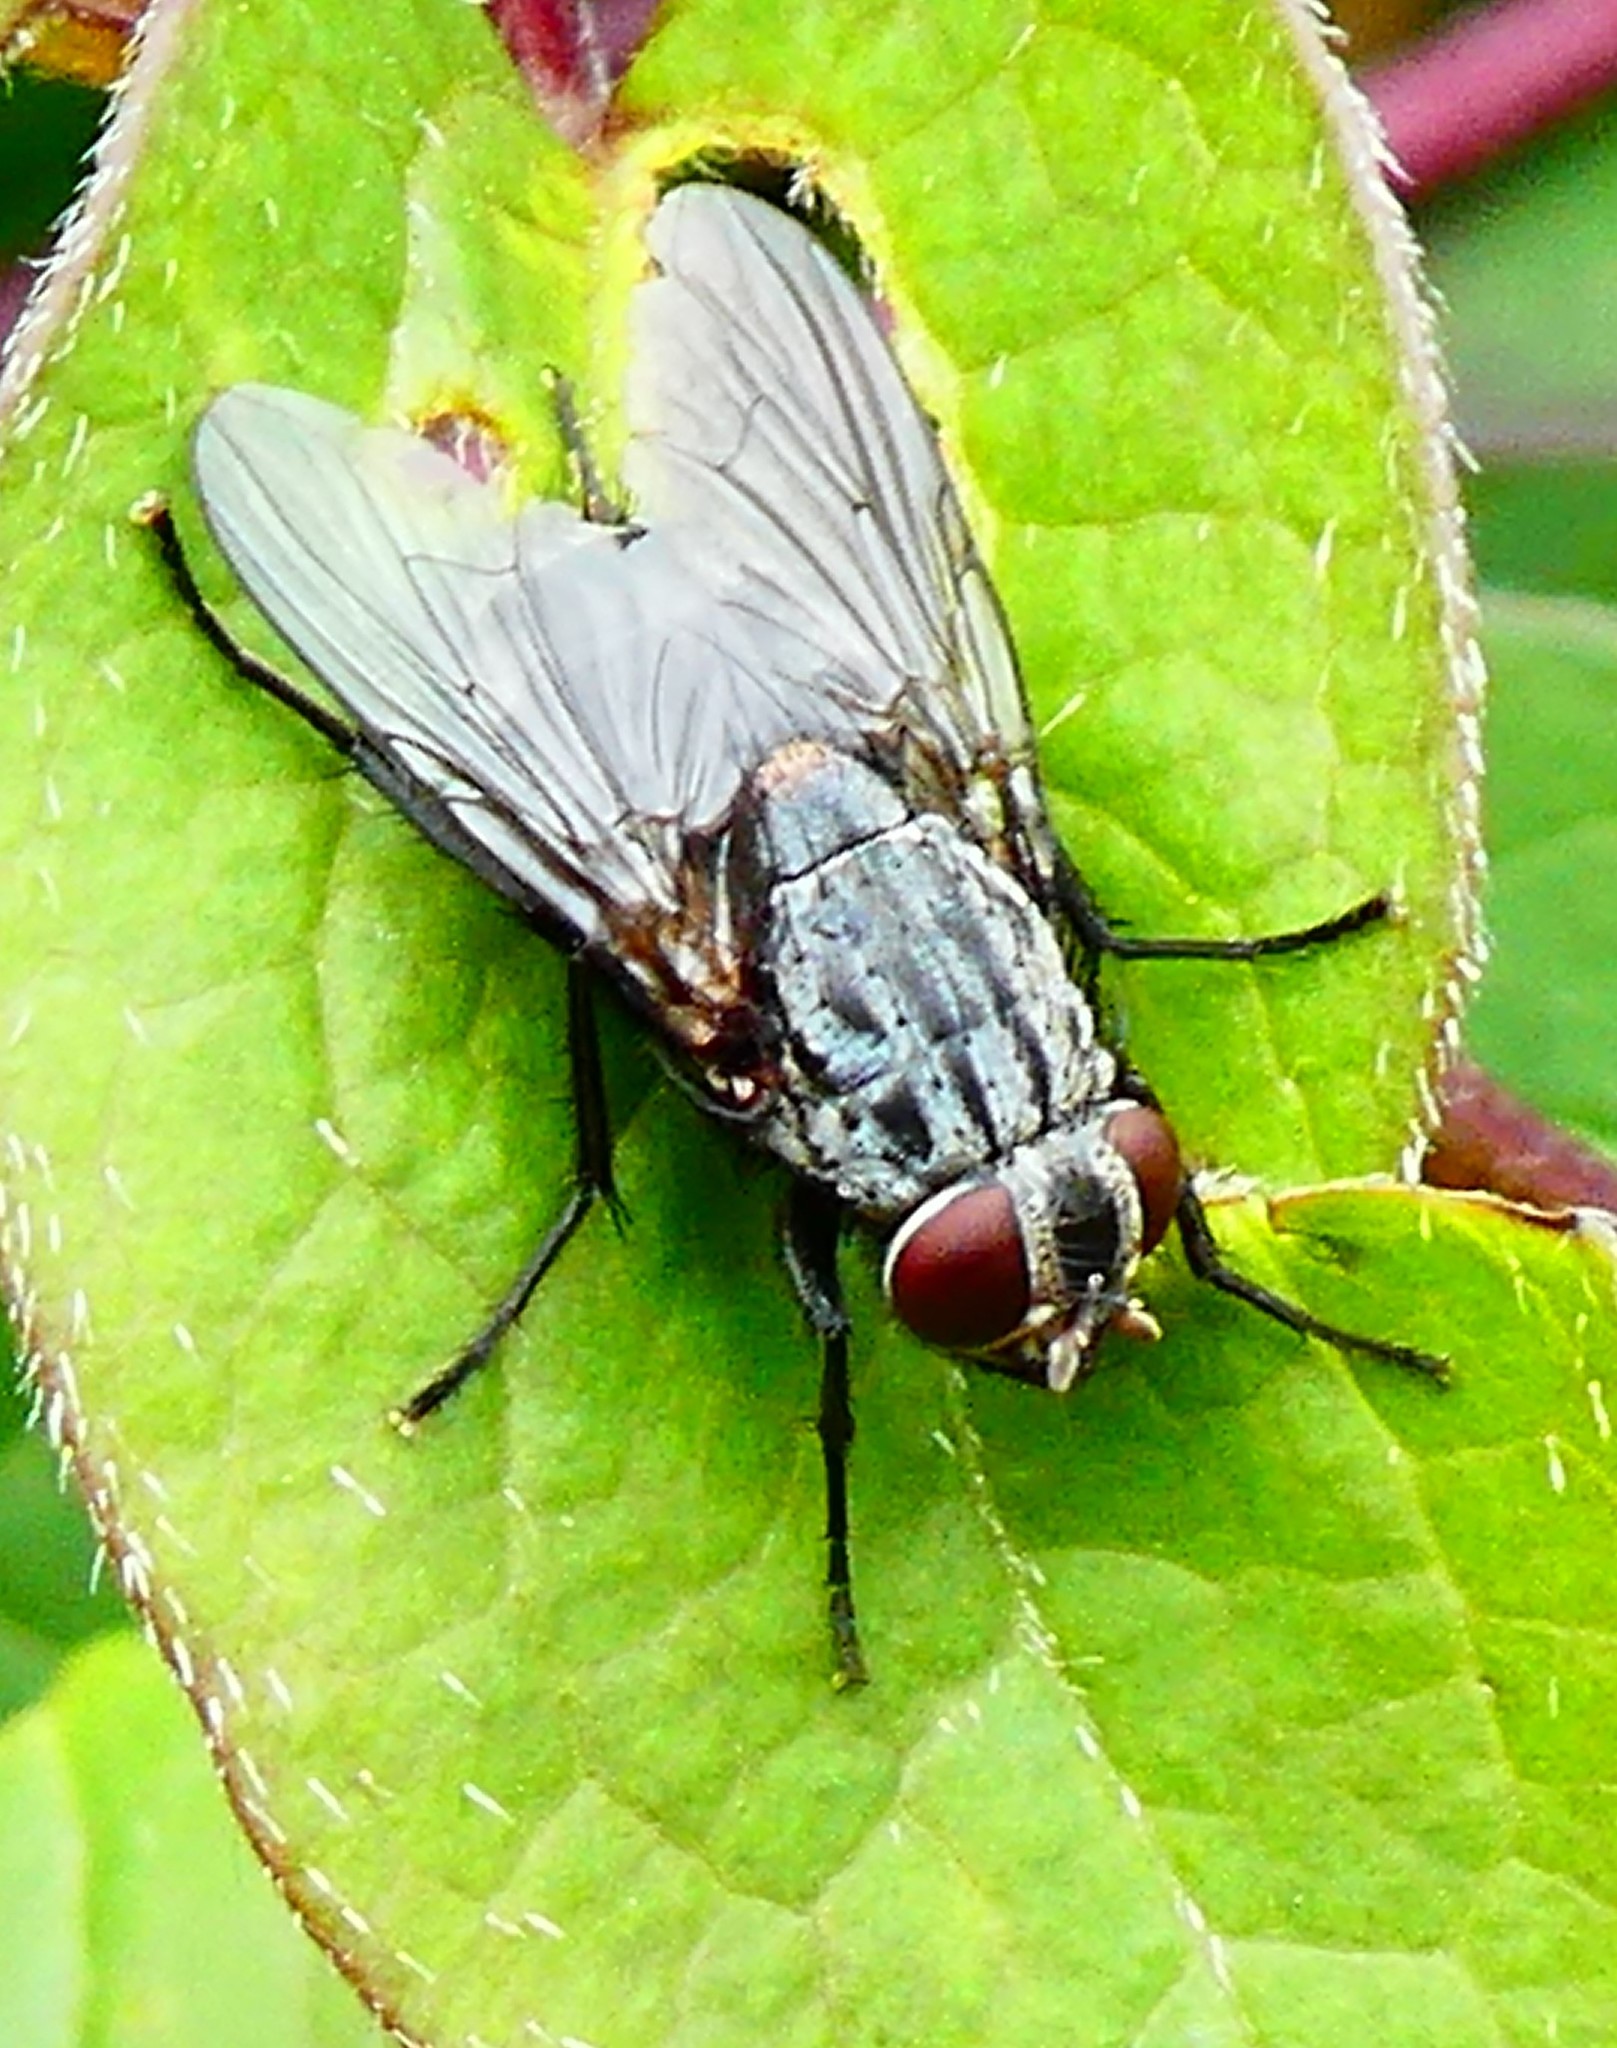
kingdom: Animalia
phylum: Arthropoda
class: Insecta
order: Diptera
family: Muscidae
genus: Muscina
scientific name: Muscina prolapsa
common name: Muscoid fly
